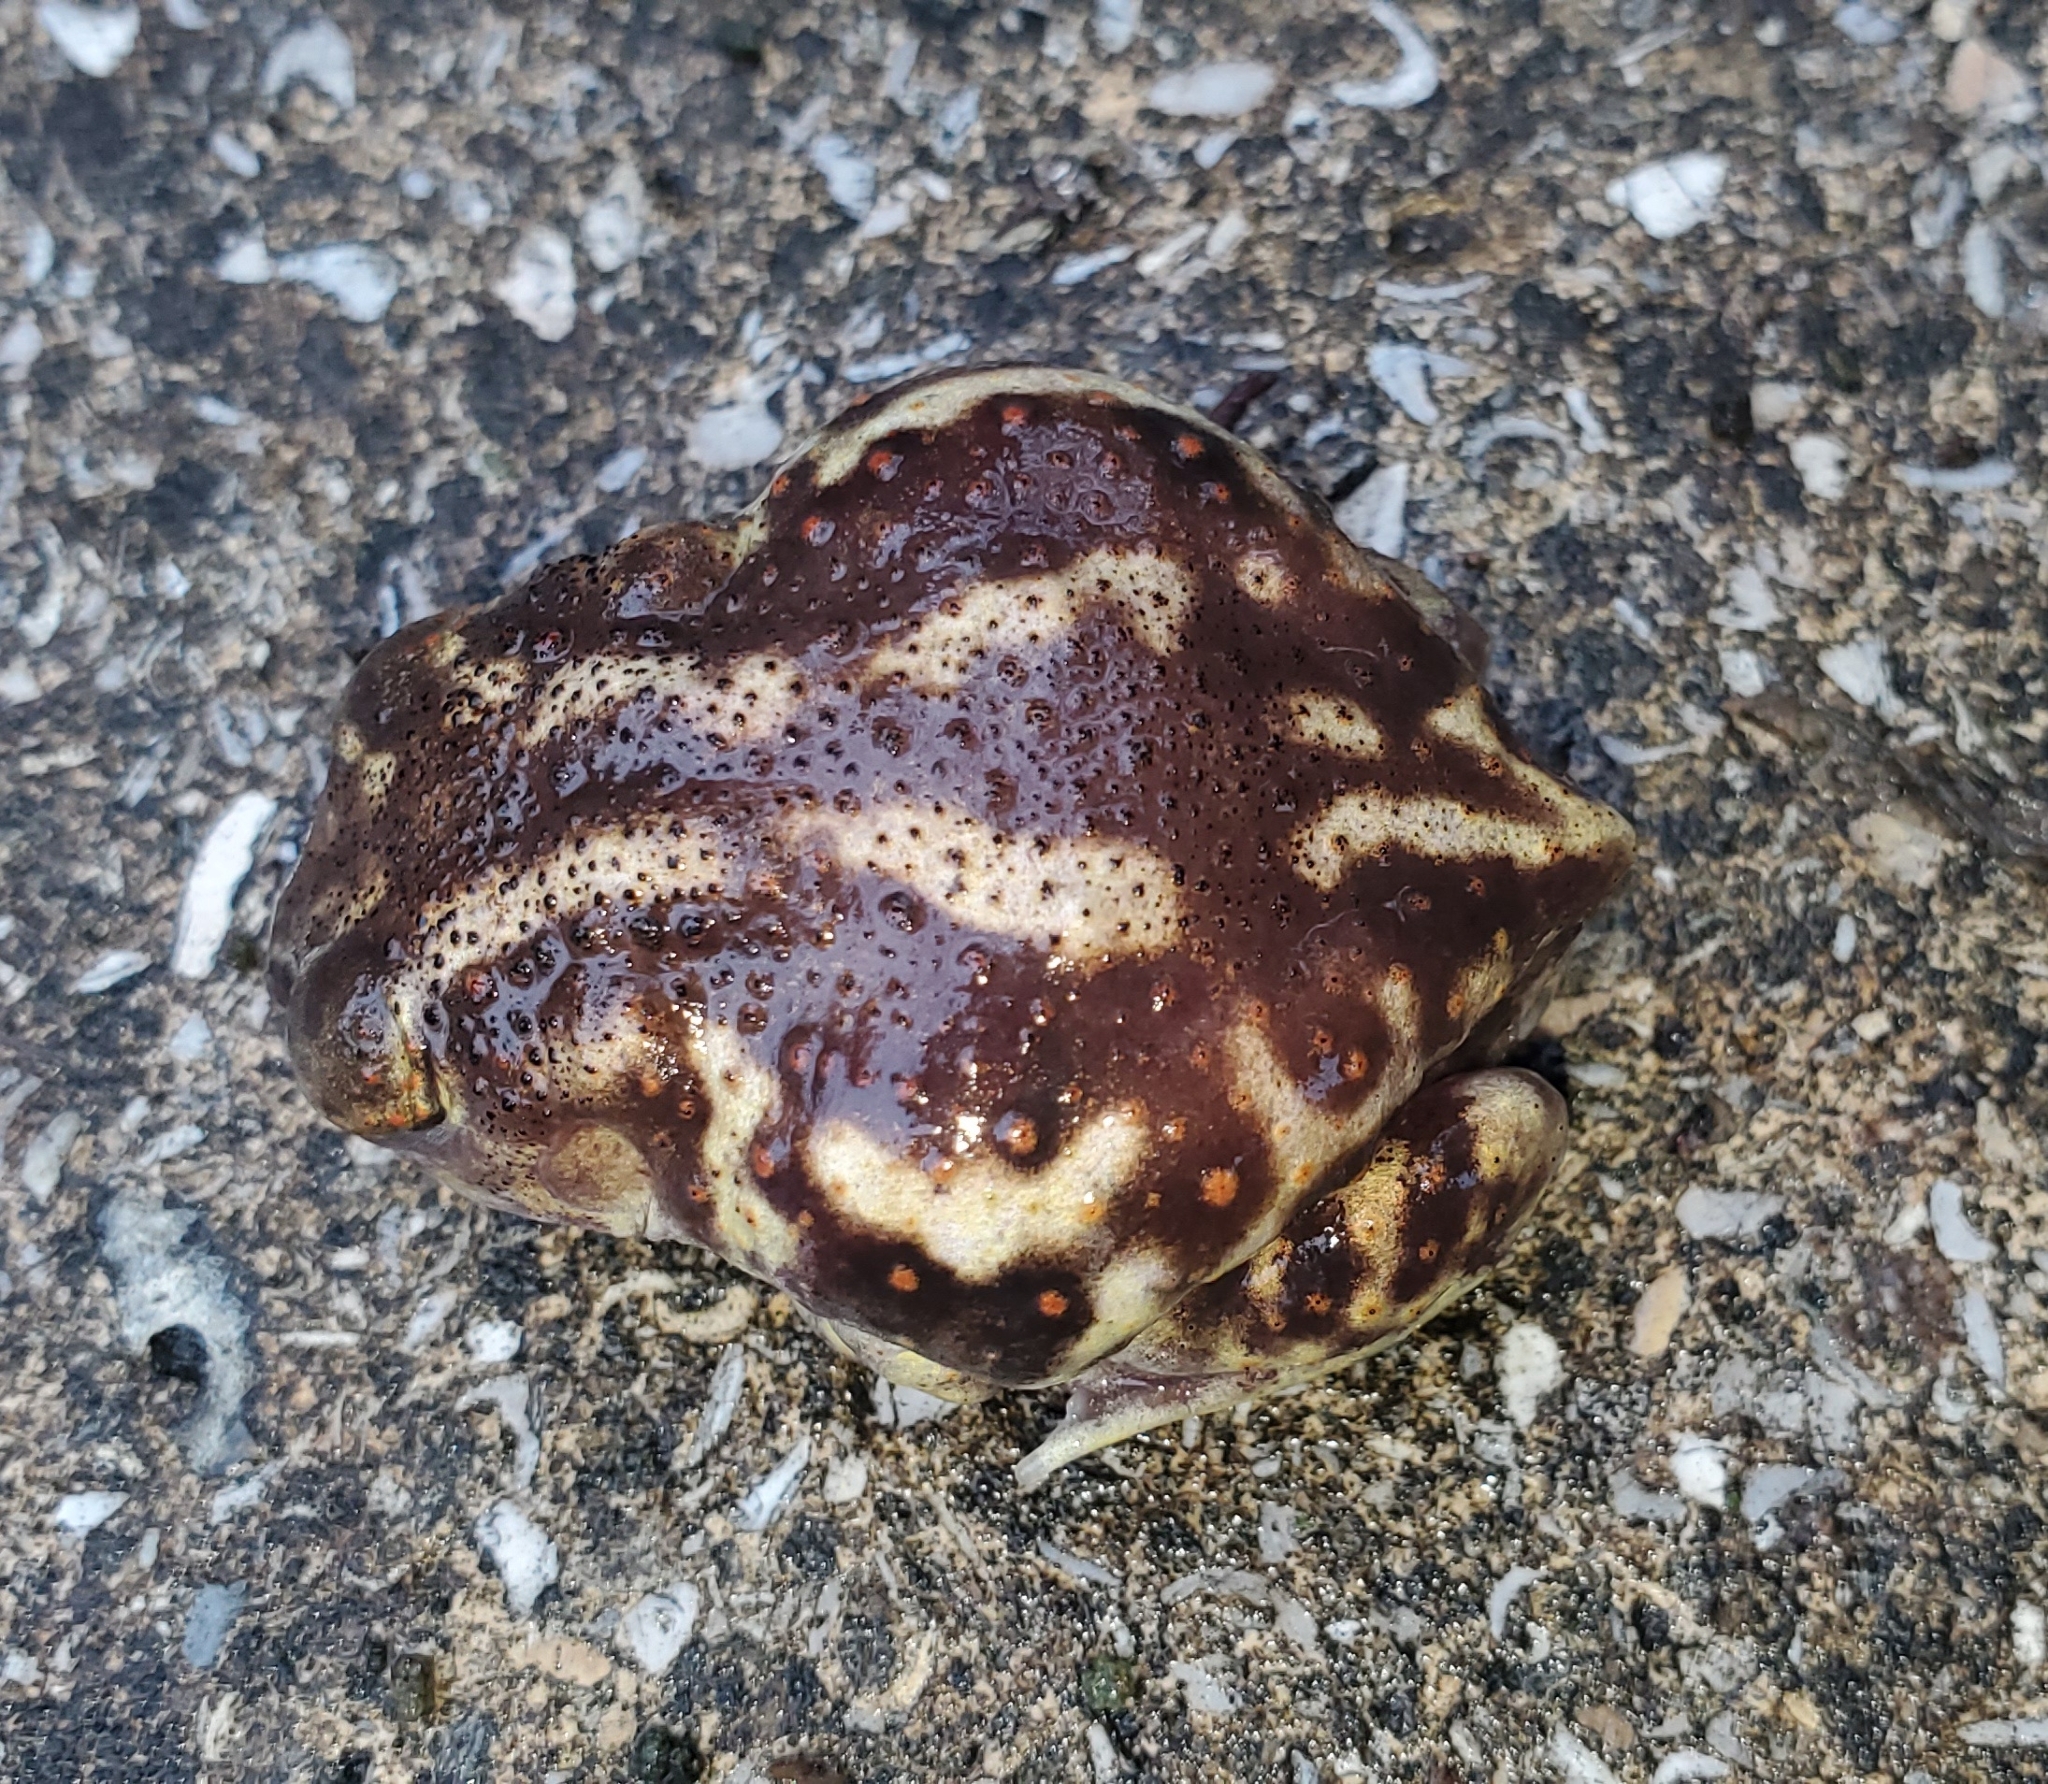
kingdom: Animalia
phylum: Chordata
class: Amphibia
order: Anura
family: Scaphiopodidae
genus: Scaphiopus
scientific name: Scaphiopus holbrookii
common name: Eastern spadefoot toad
